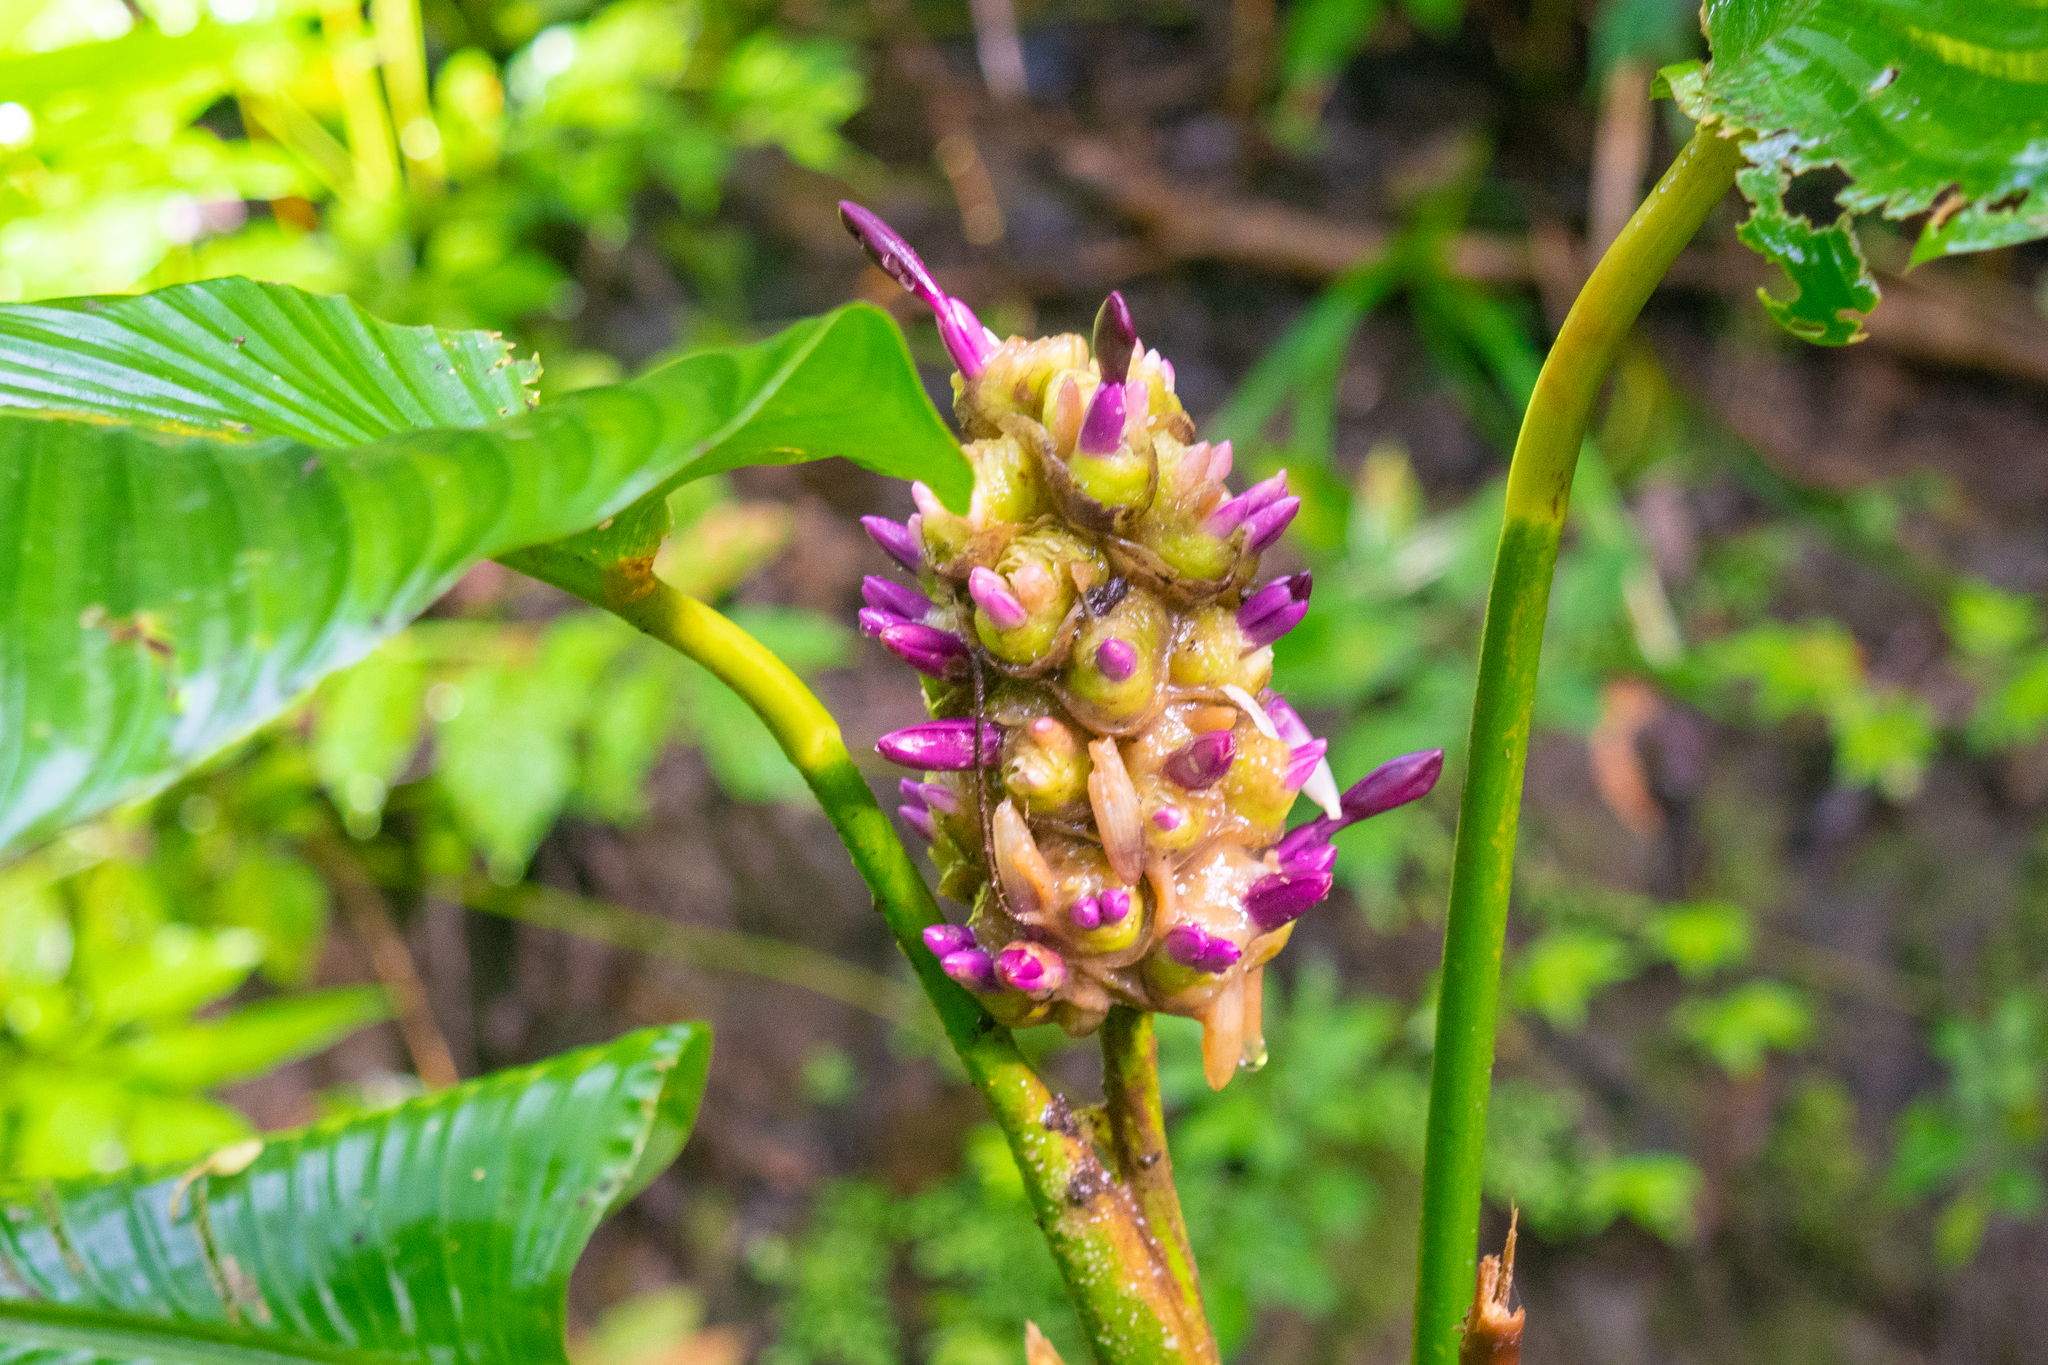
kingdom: Plantae
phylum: Tracheophyta
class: Liliopsida
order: Zingiberales
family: Marantaceae
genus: Goeppertia
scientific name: Goeppertia latifolia
